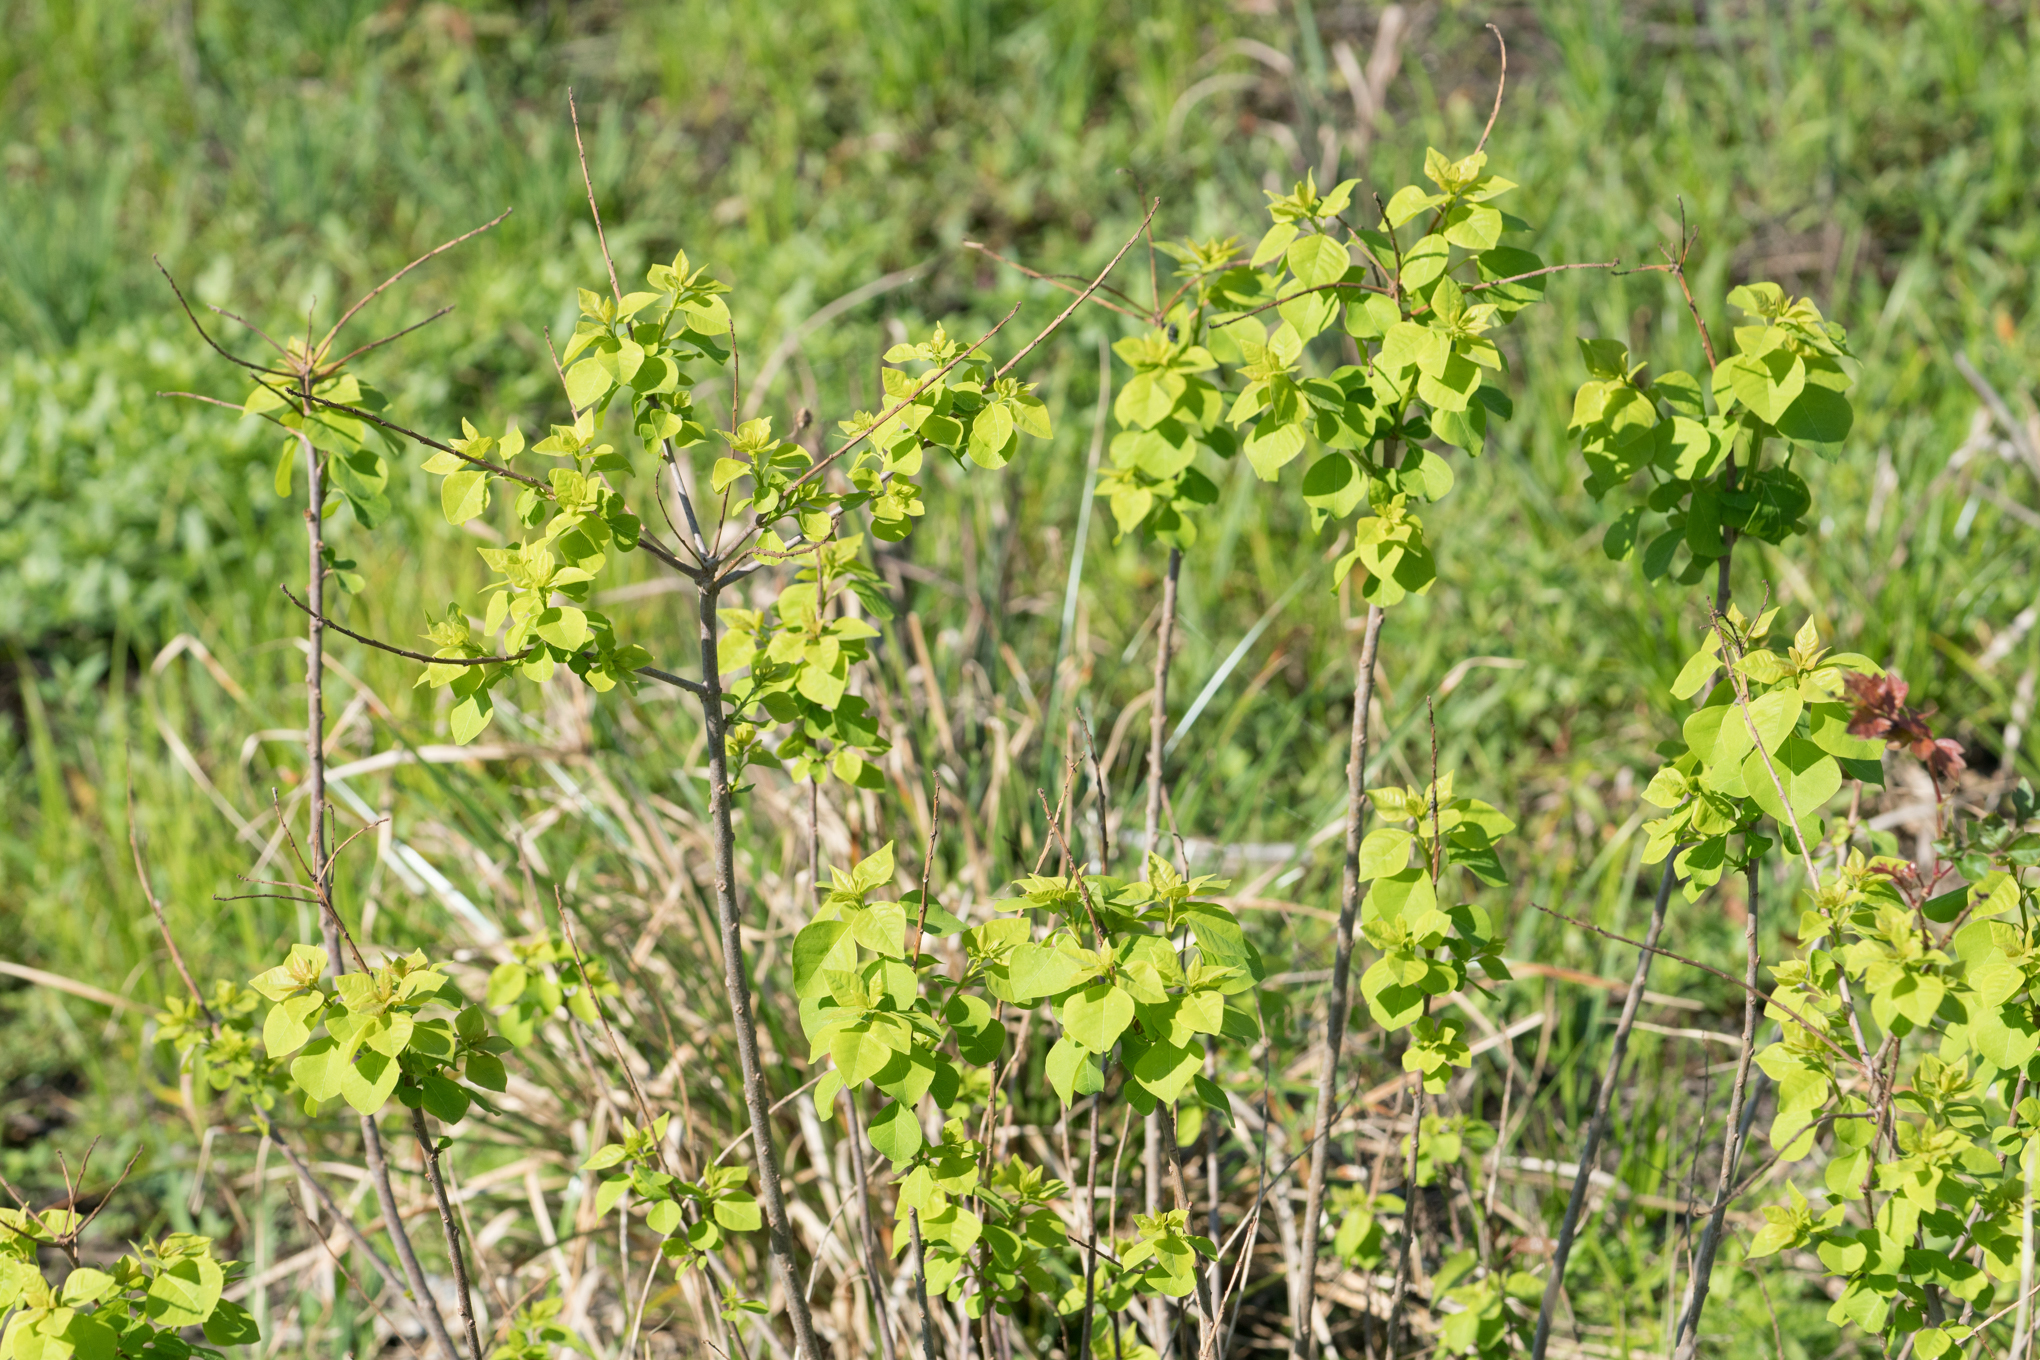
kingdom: Plantae
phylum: Tracheophyta
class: Magnoliopsida
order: Malpighiales
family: Euphorbiaceae
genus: Triadica
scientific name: Triadica sebifera
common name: Chinese tallow
